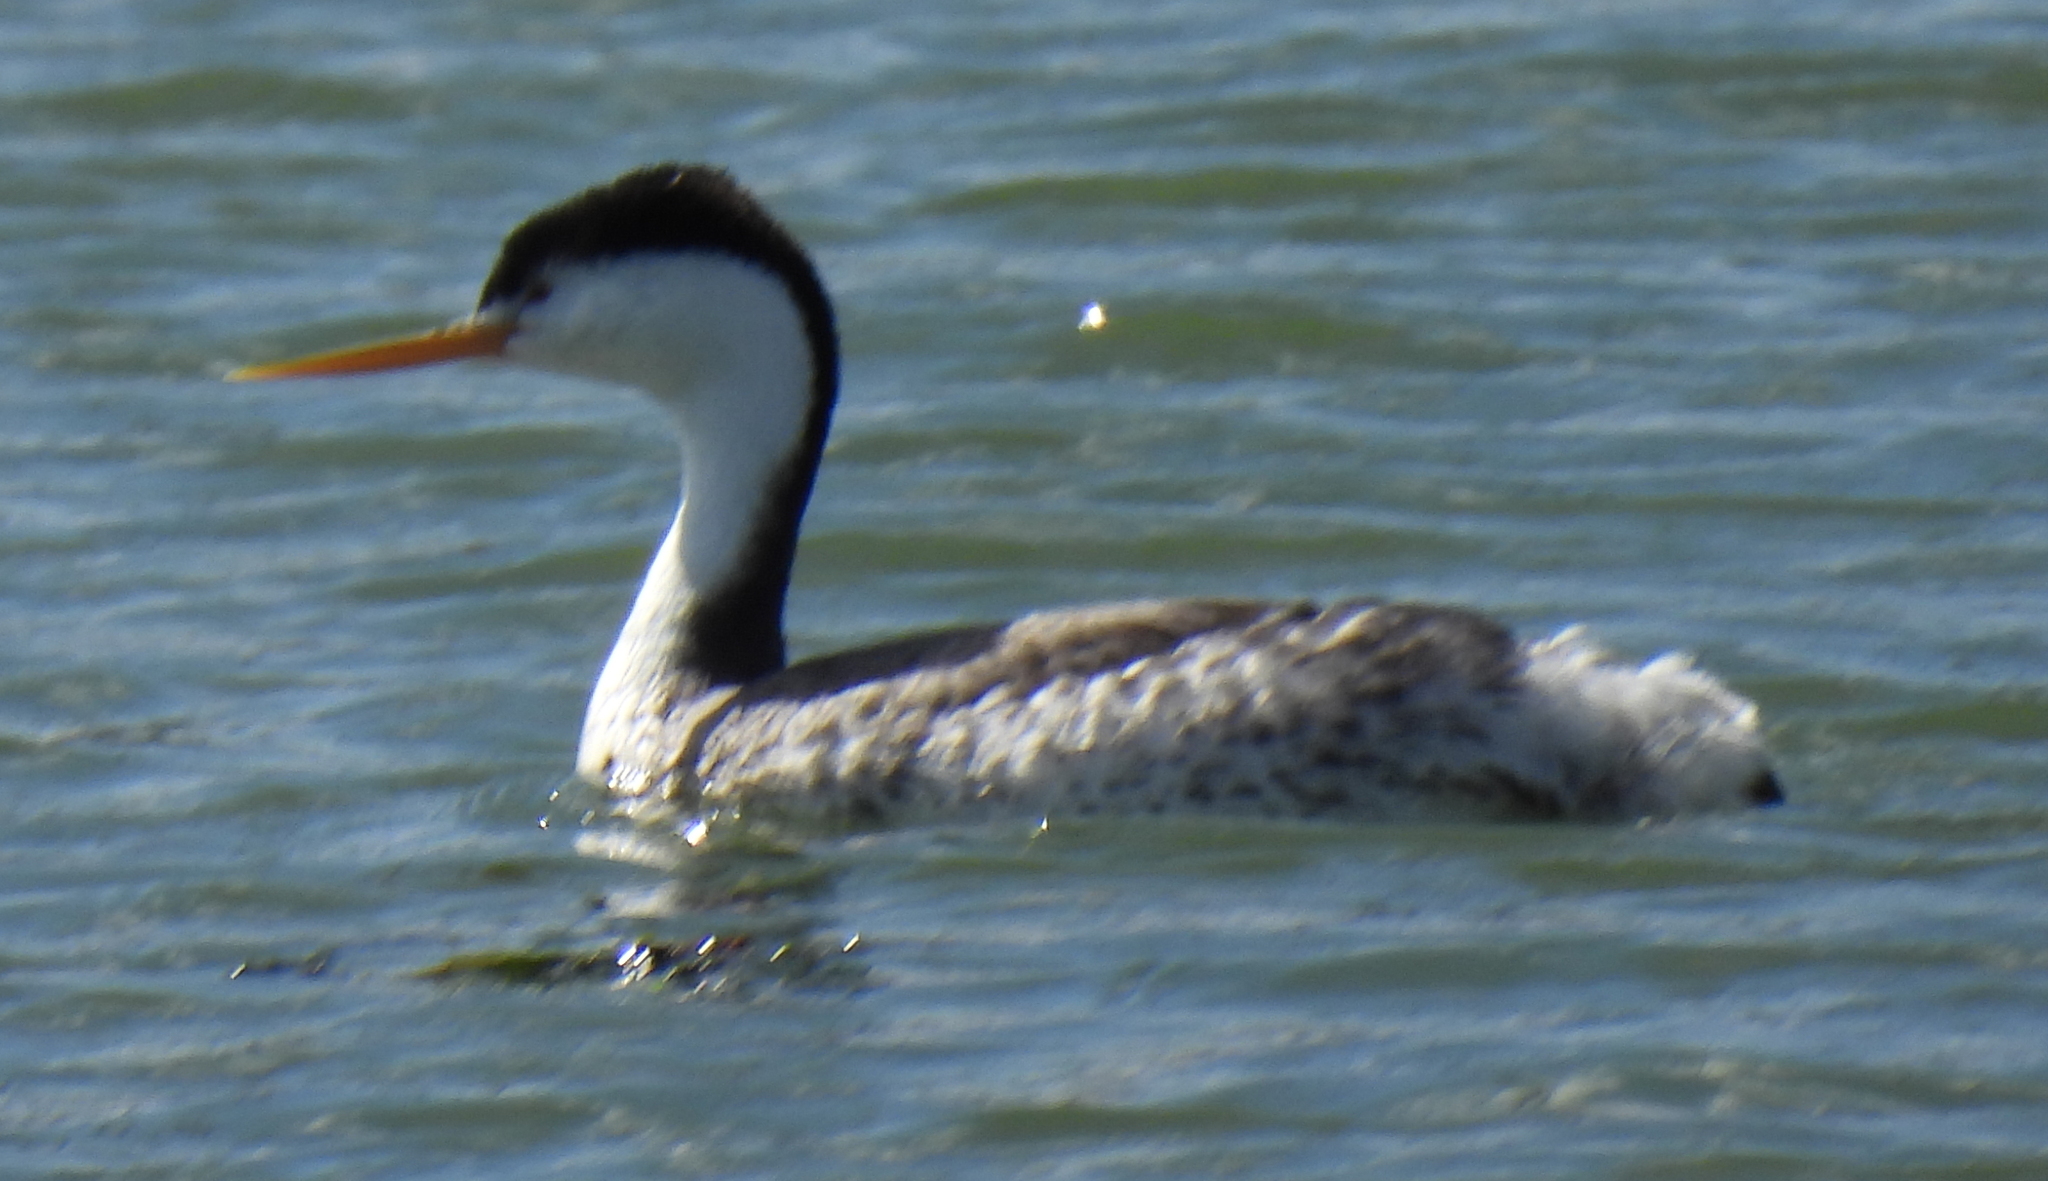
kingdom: Animalia
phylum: Chordata
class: Aves
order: Podicipediformes
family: Podicipedidae
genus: Aechmophorus
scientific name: Aechmophorus clarkii
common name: Clark's grebe
